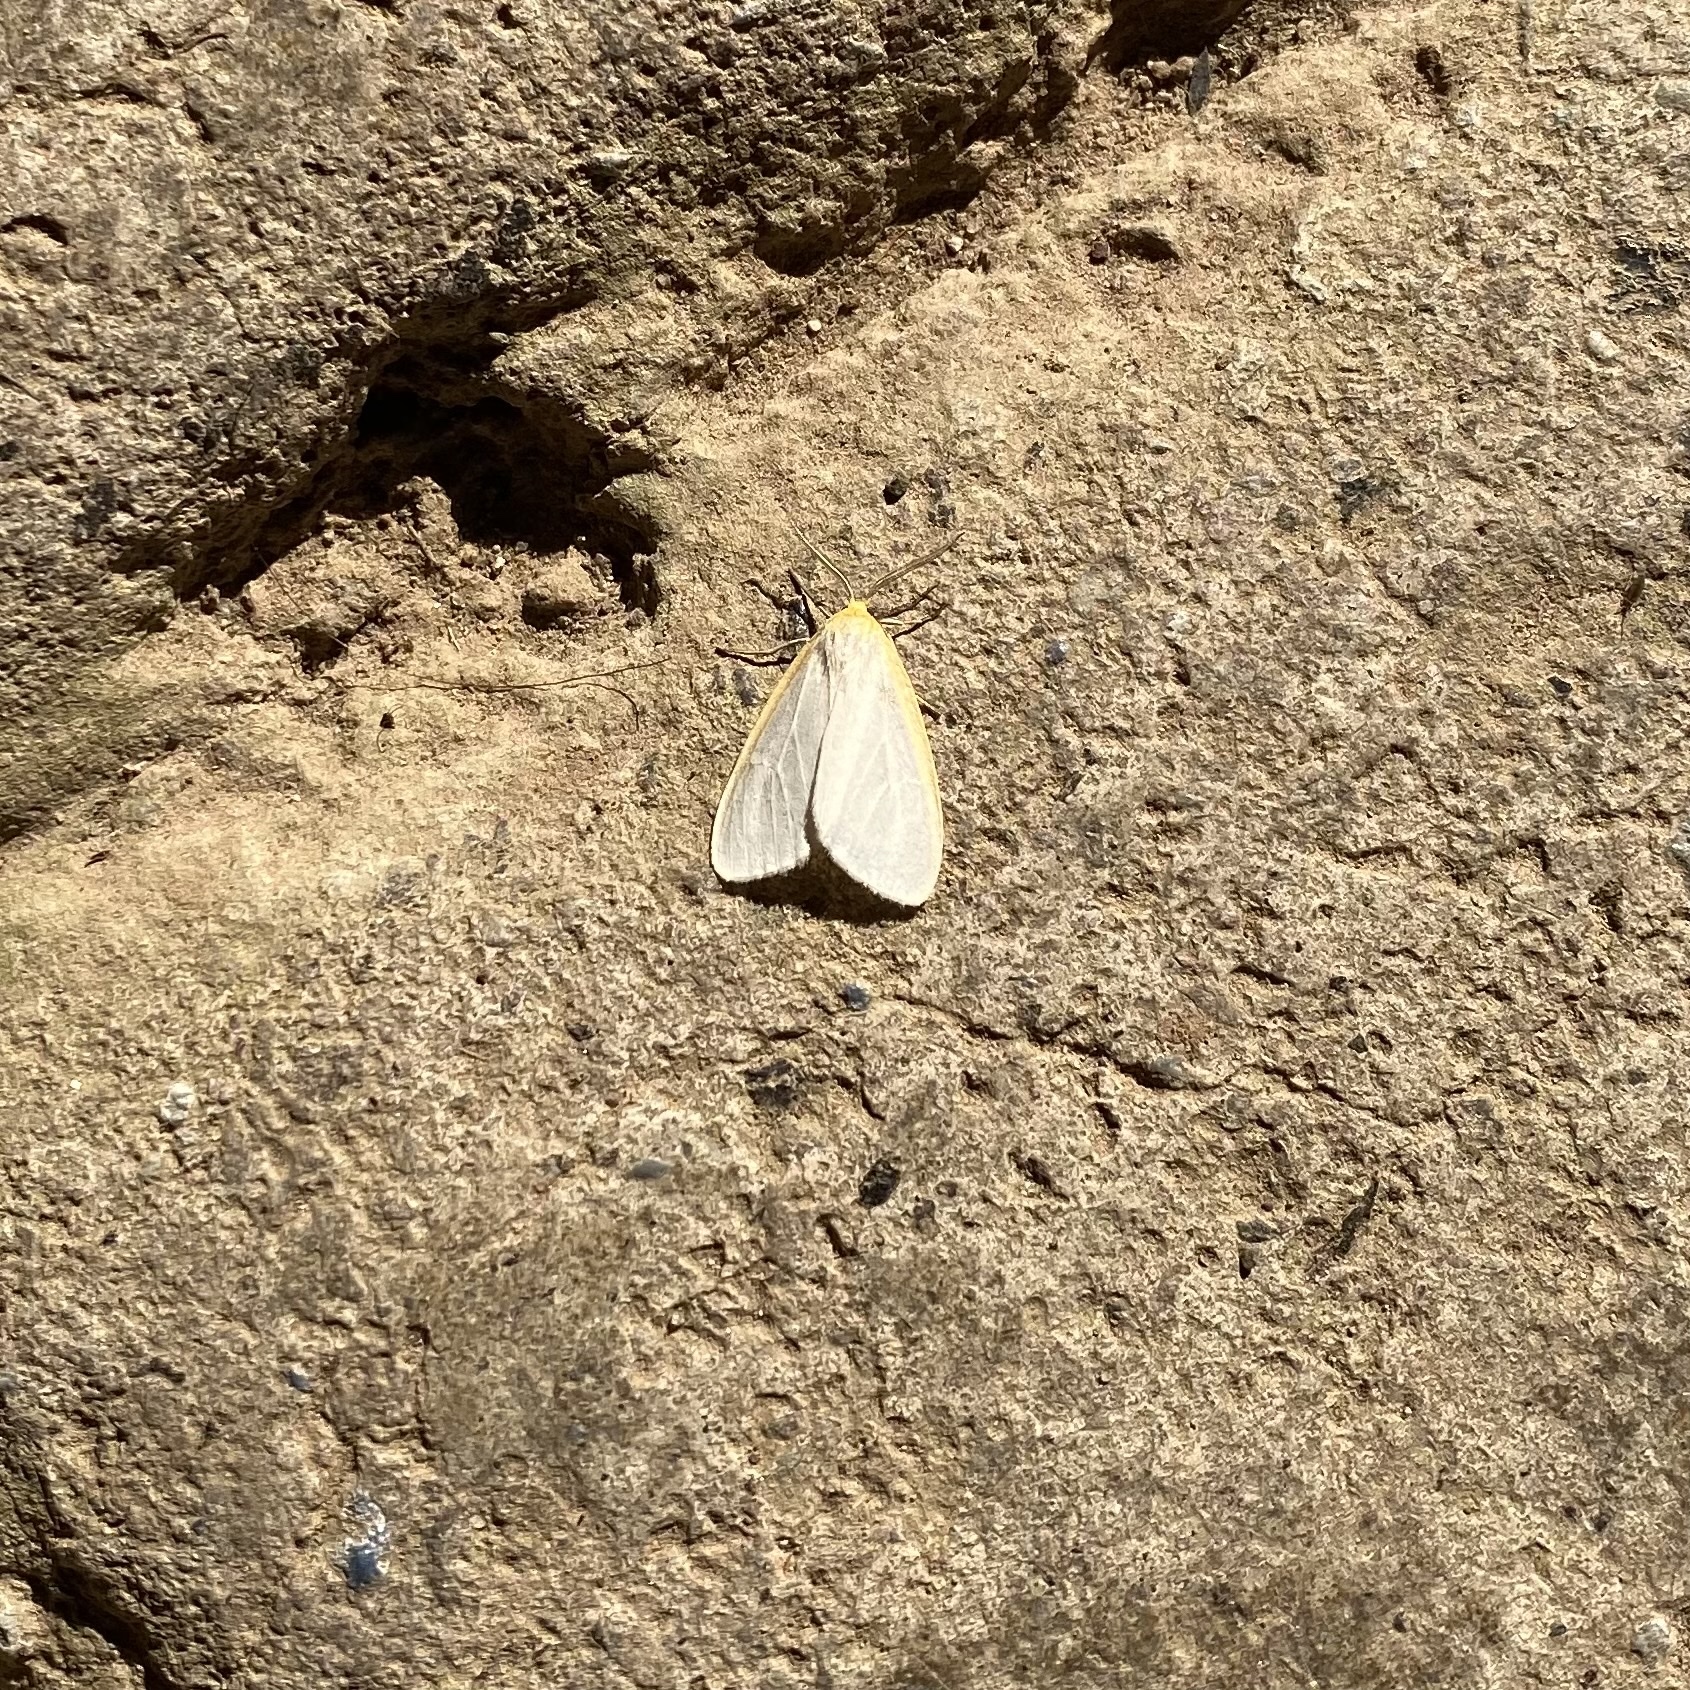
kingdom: Animalia
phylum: Arthropoda
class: Insecta
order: Lepidoptera
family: Erebidae
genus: Cycnia
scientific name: Cycnia tenera
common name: Delicate cycnia moth
